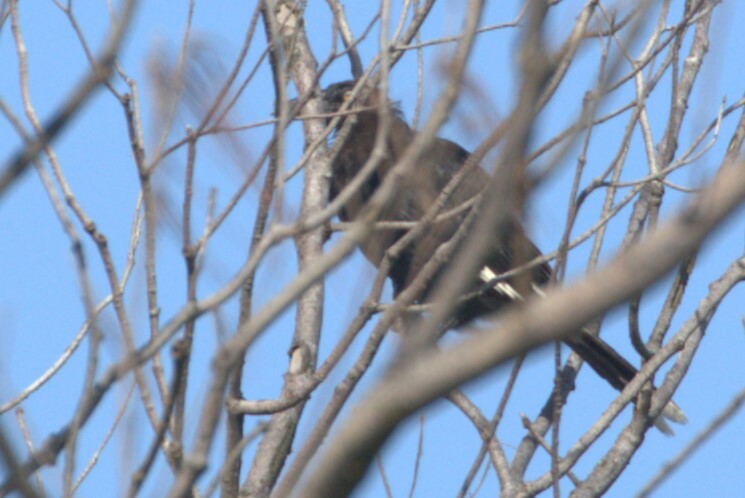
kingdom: Animalia
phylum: Chordata
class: Aves
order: Passeriformes
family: Cracticidae
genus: Strepera
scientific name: Strepera graculina
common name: Pied currawong
